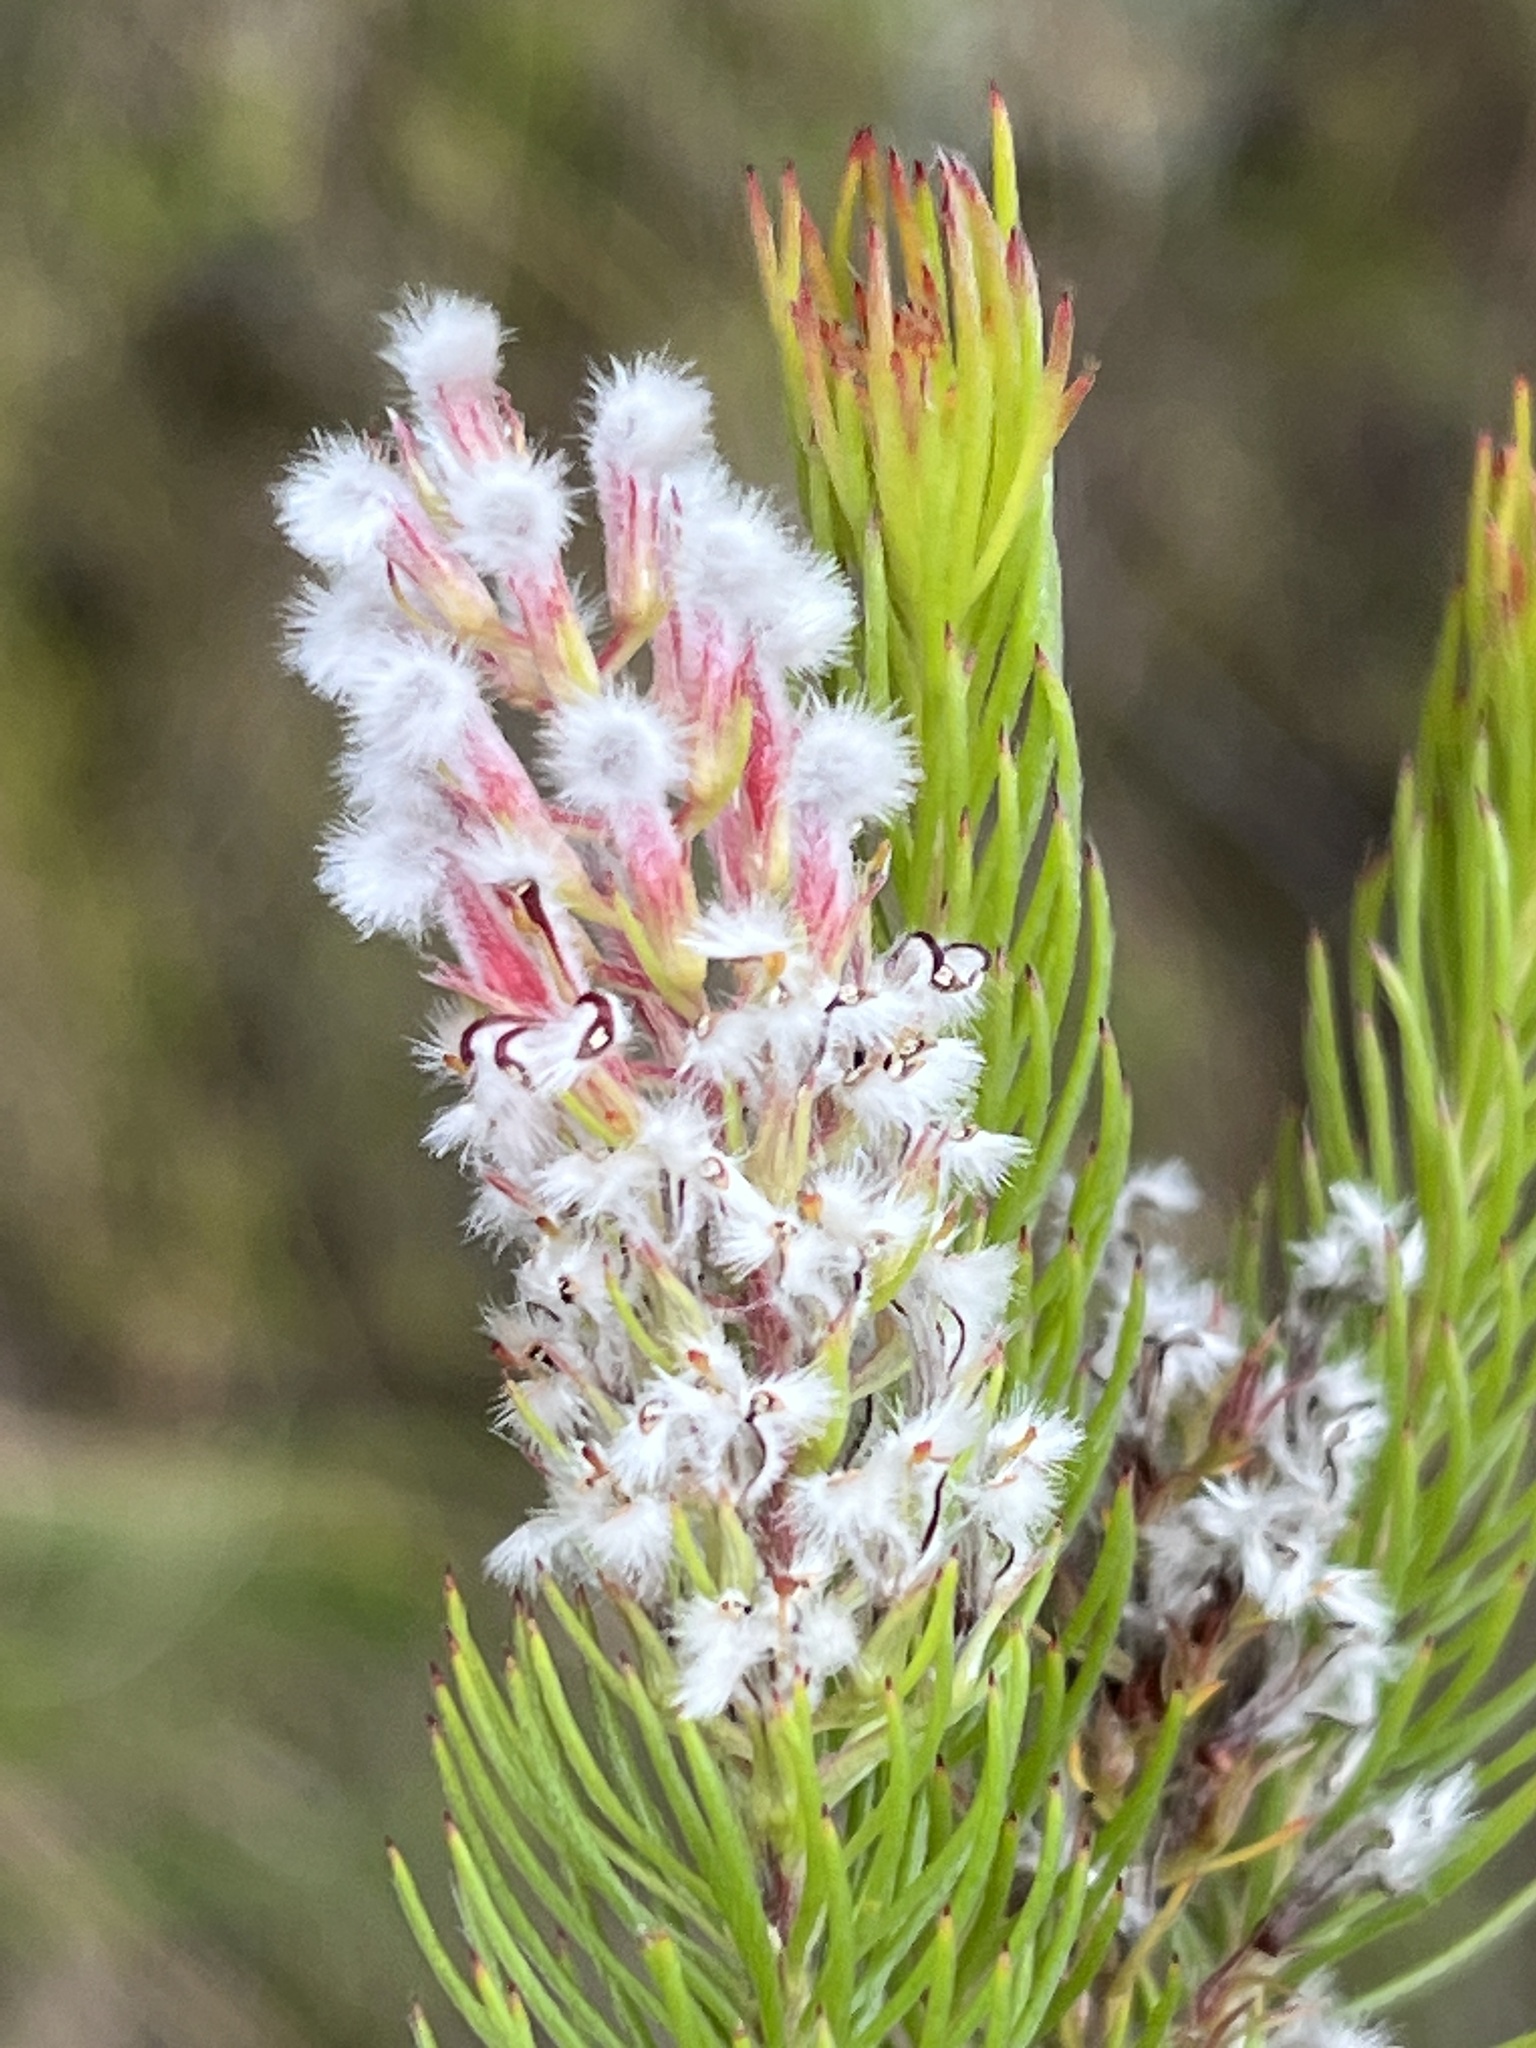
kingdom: Plantae
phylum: Tracheophyta
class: Magnoliopsida
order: Proteales
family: Proteaceae
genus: Spatalla
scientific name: Spatalla parilis
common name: Spike spoon
